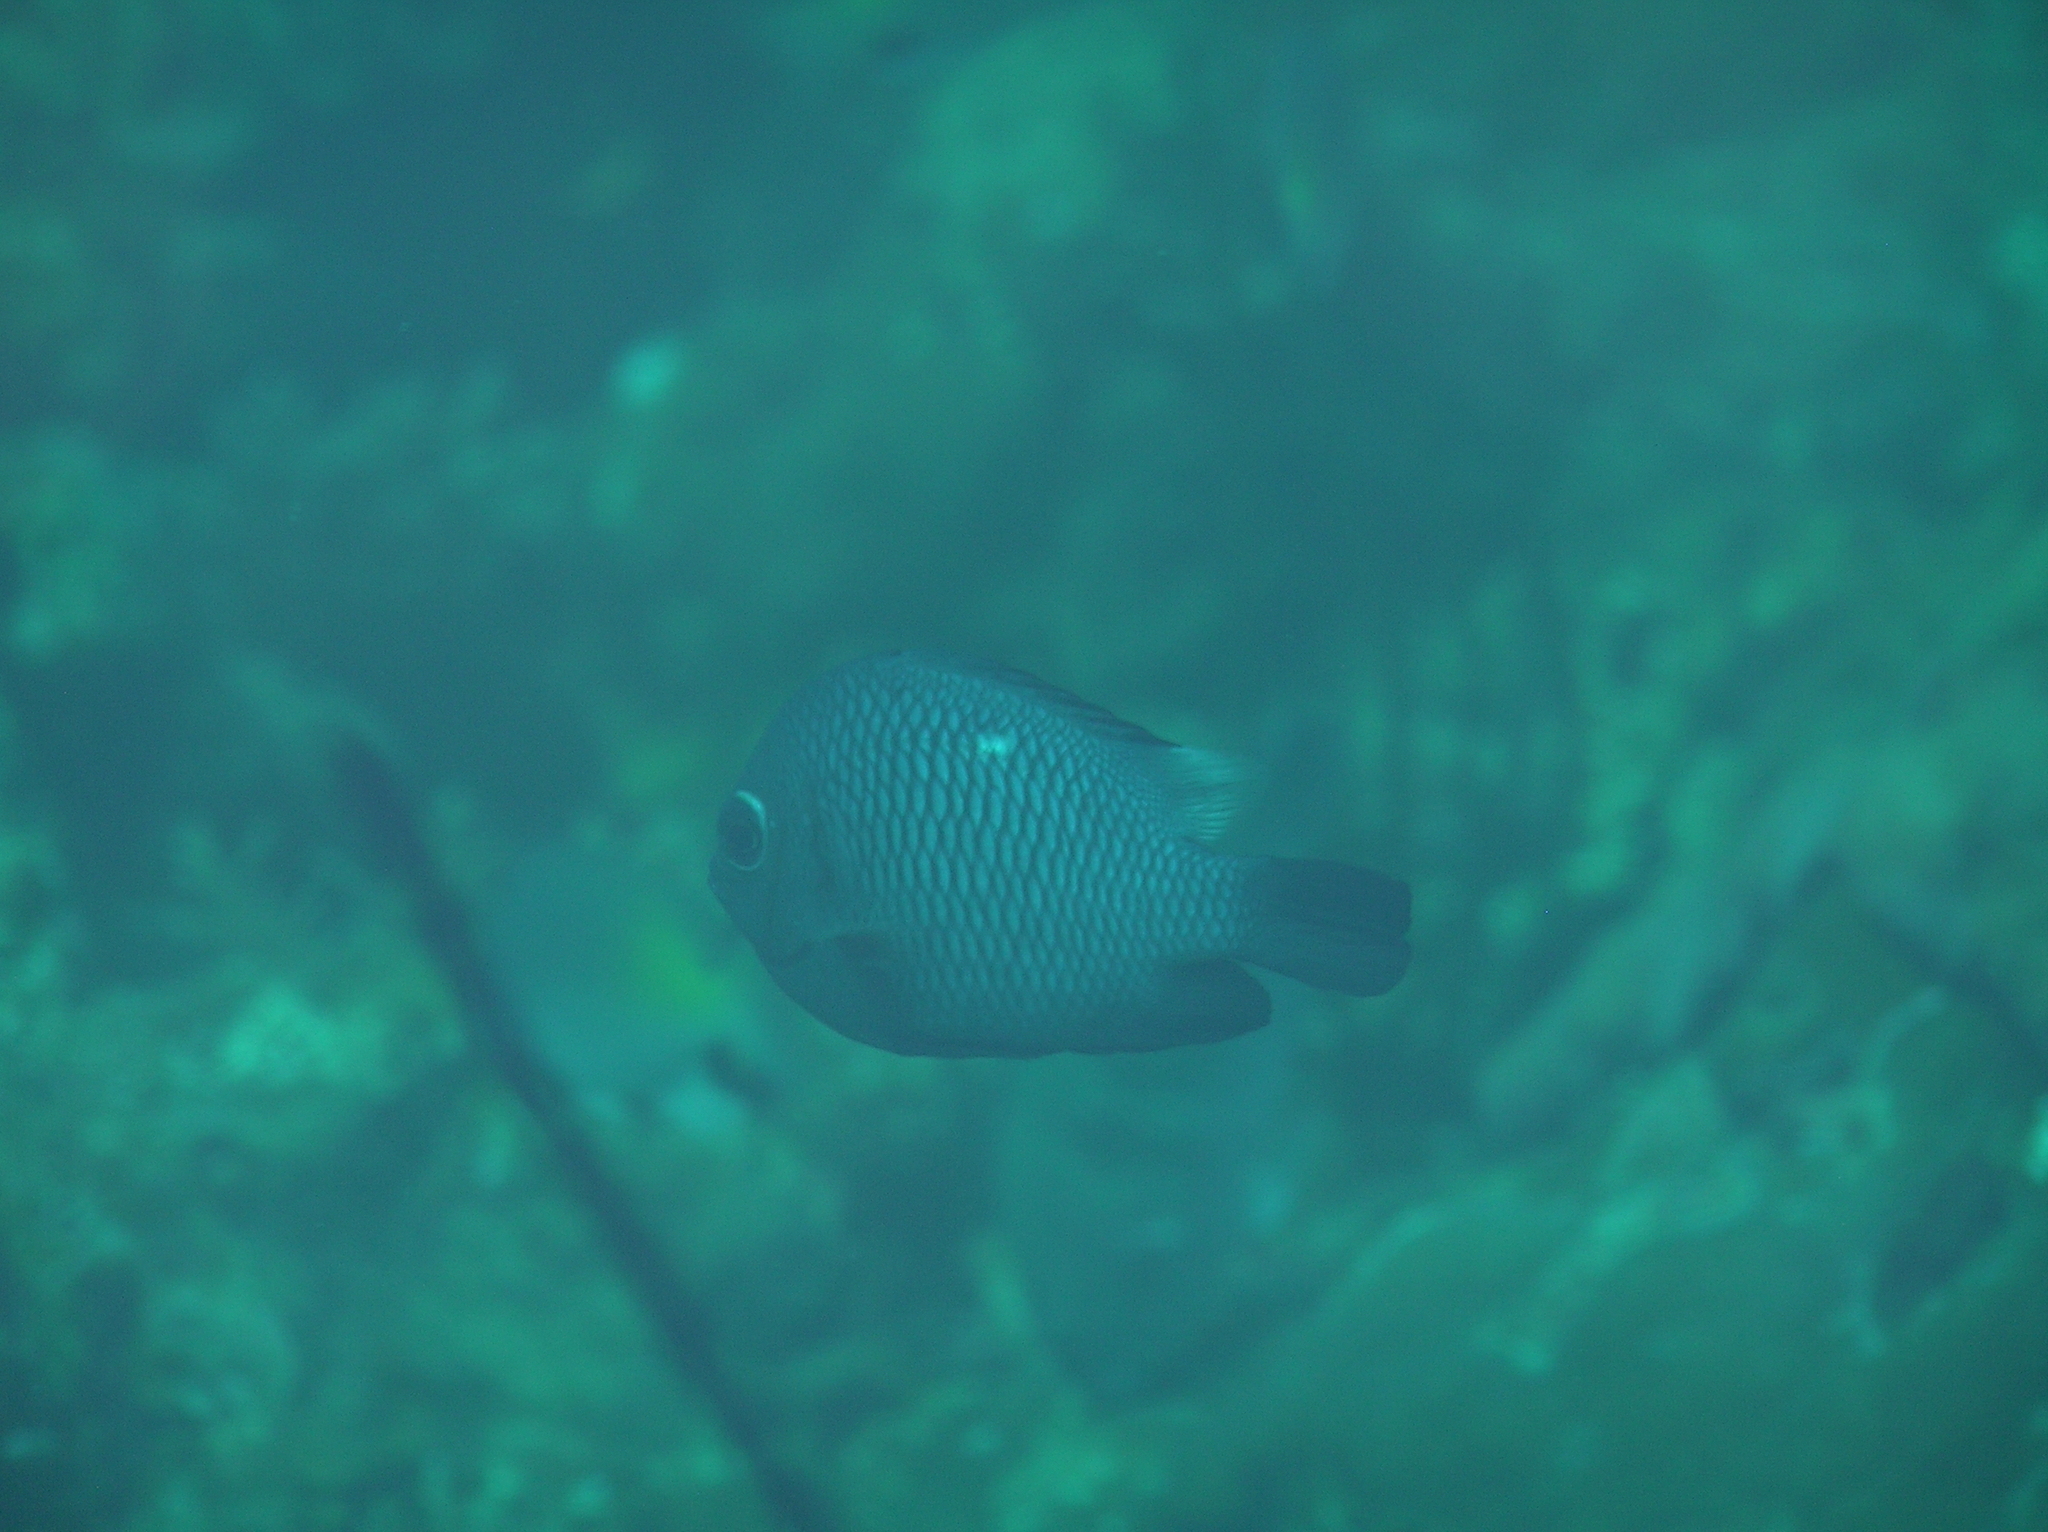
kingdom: Animalia
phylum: Chordata
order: Perciformes
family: Pomacentridae
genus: Dascyllus
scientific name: Dascyllus trimaculatus
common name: Threespot dascyllus
